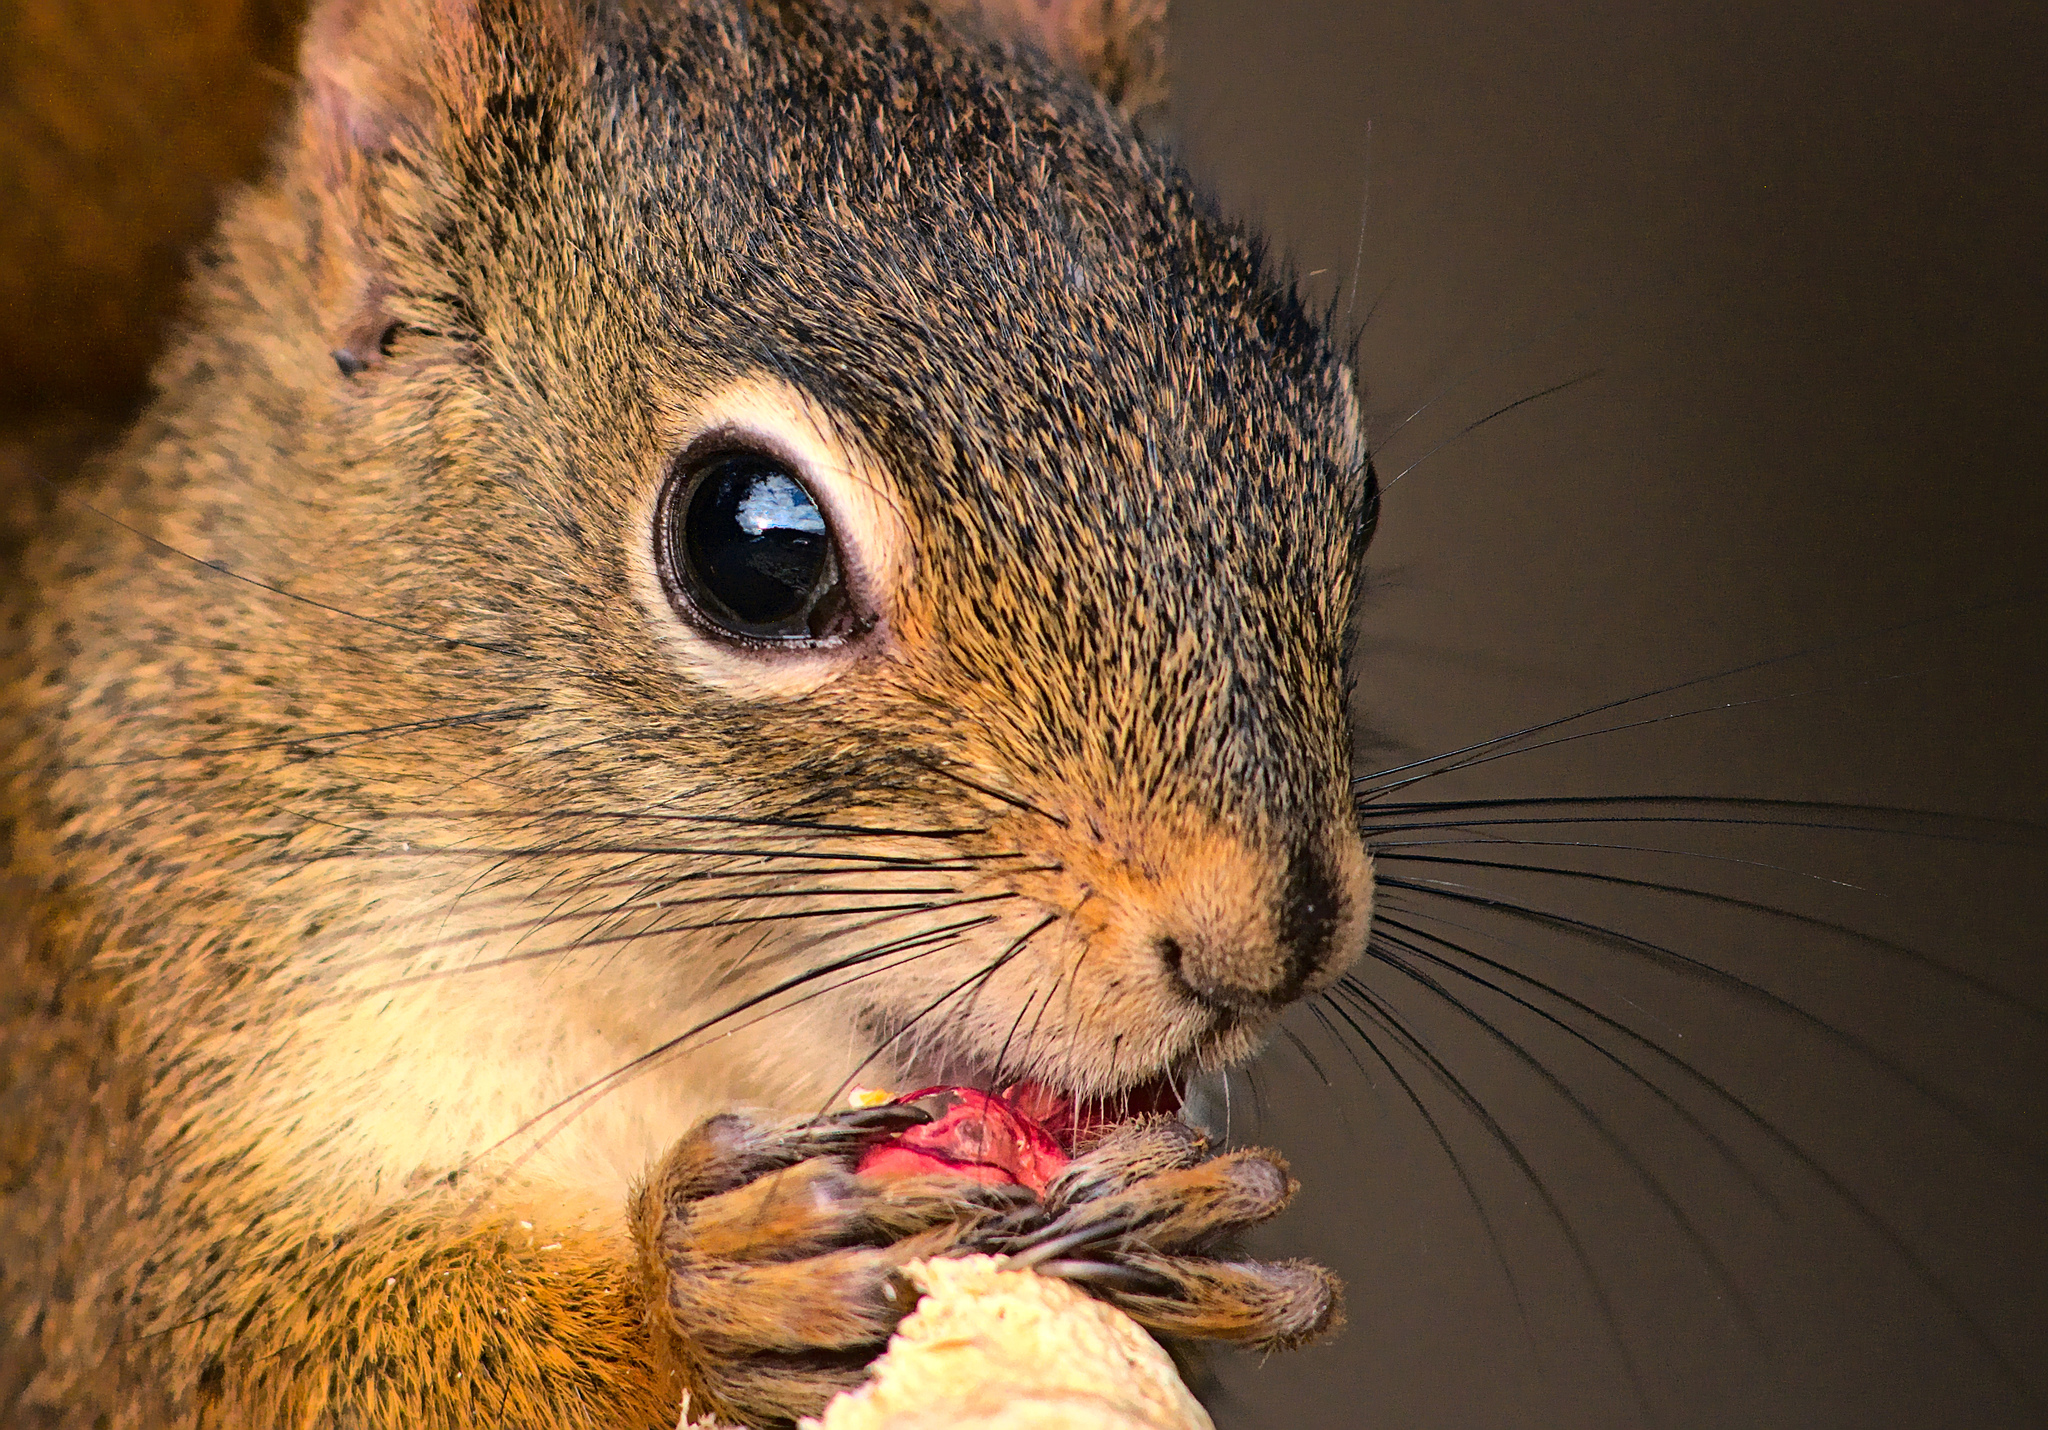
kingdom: Animalia
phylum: Chordata
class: Mammalia
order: Rodentia
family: Sciuridae
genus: Tamiasciurus
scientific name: Tamiasciurus hudsonicus
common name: Red squirrel
